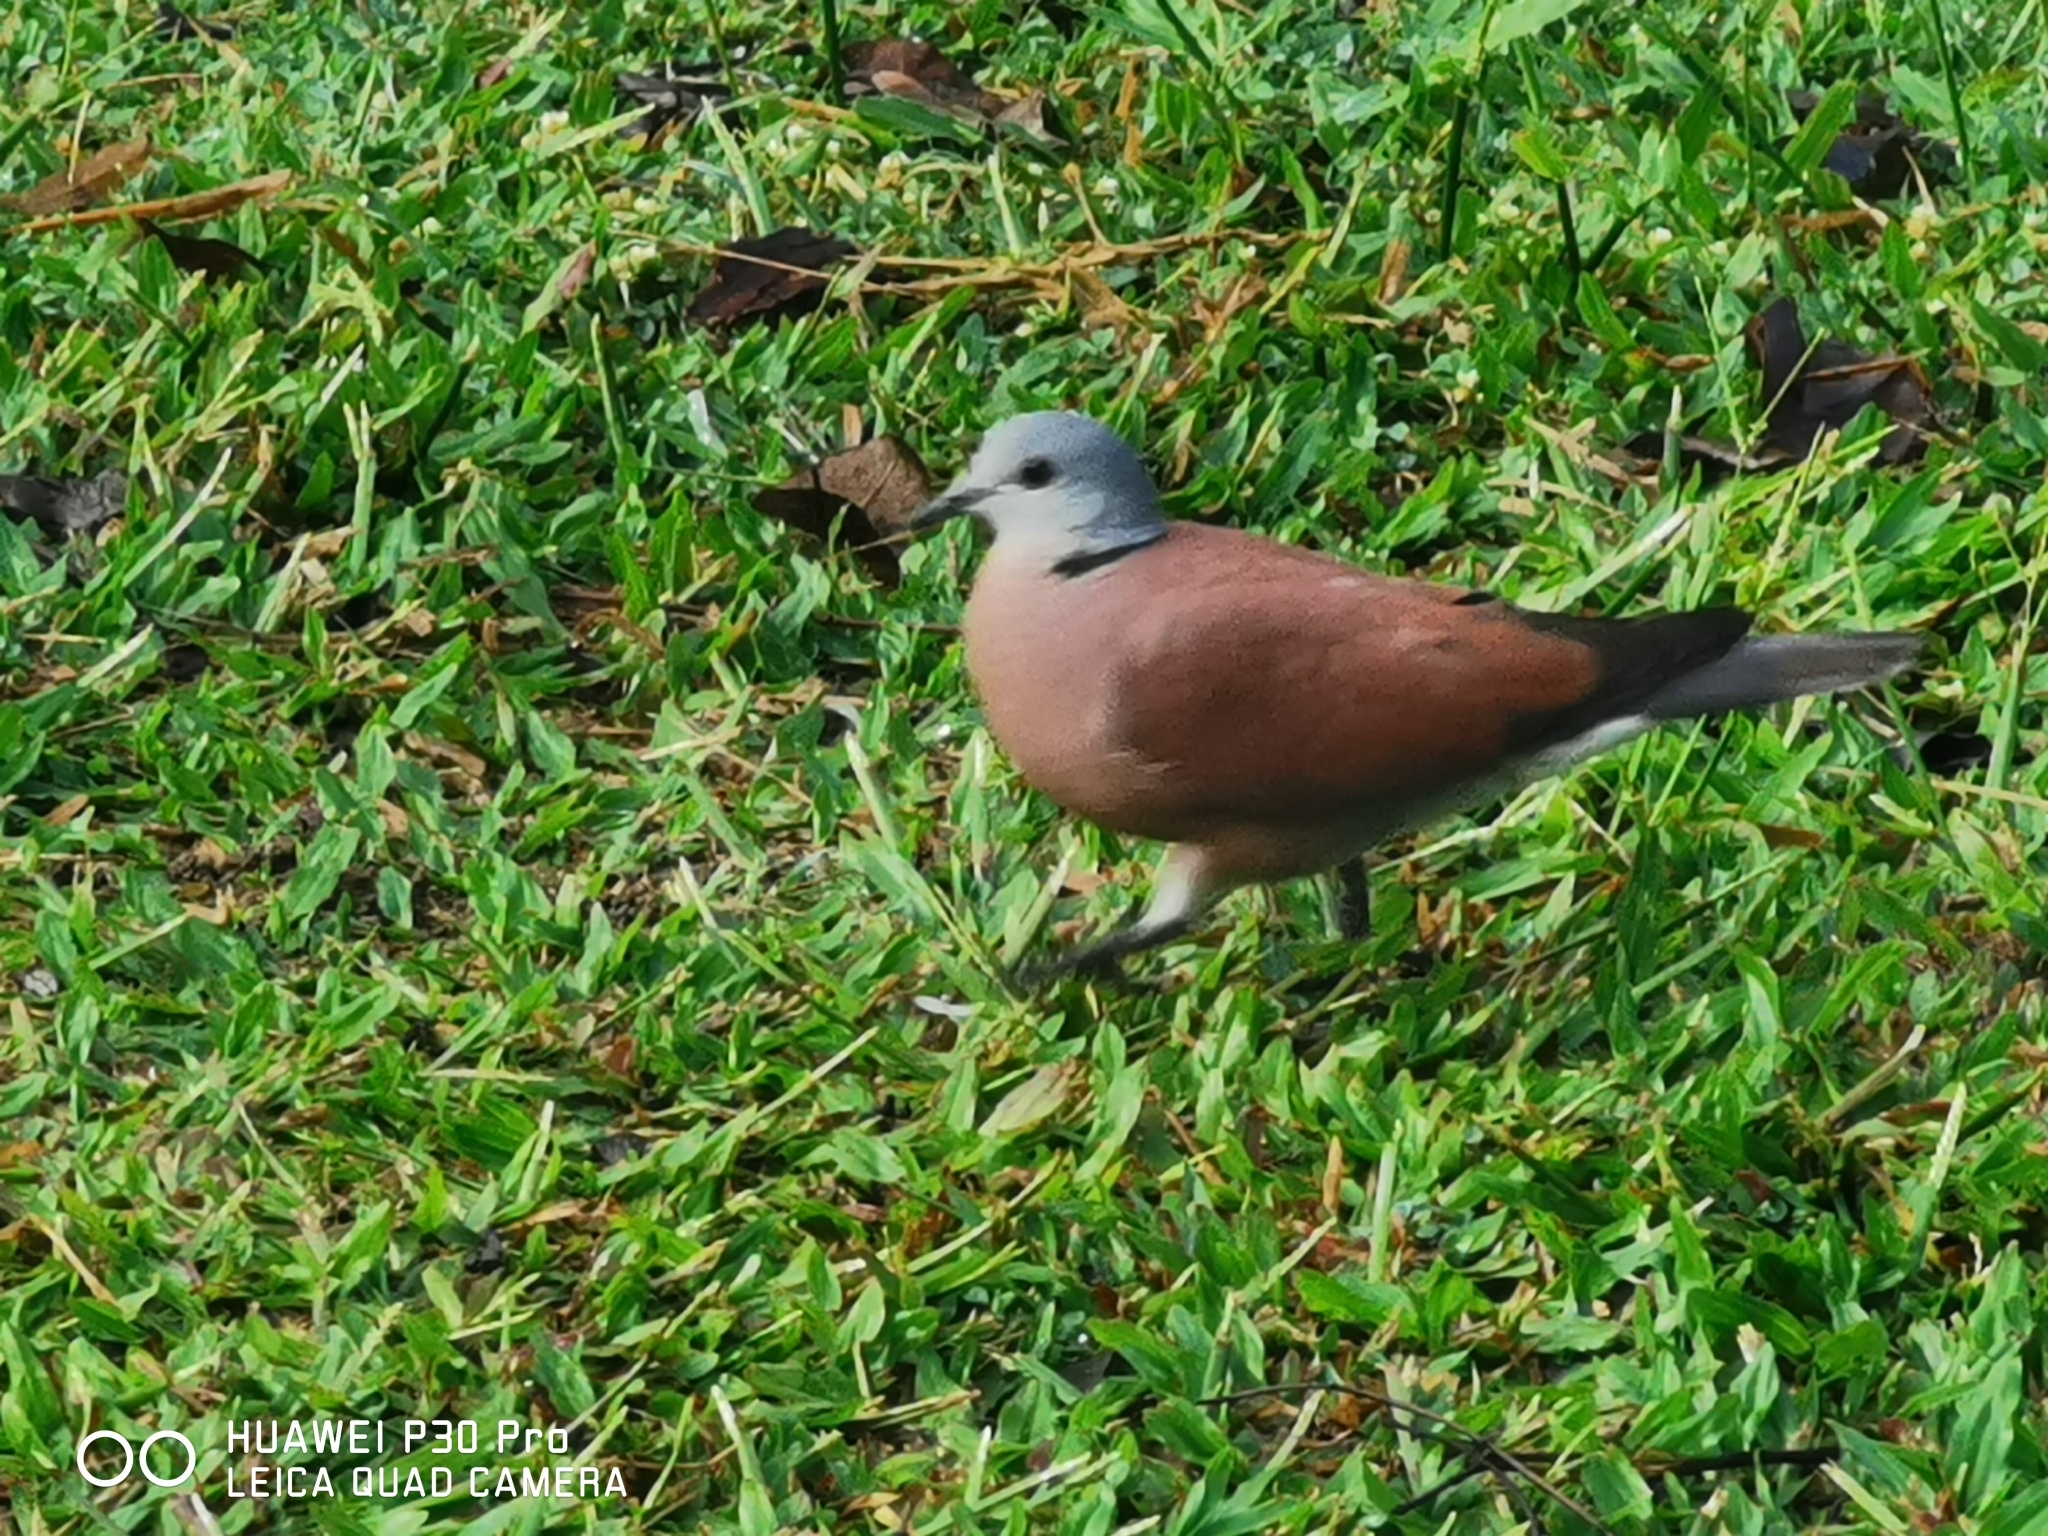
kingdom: Animalia
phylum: Chordata
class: Aves
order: Columbiformes
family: Columbidae
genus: Streptopelia
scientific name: Streptopelia tranquebarica
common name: Red turtle dove
